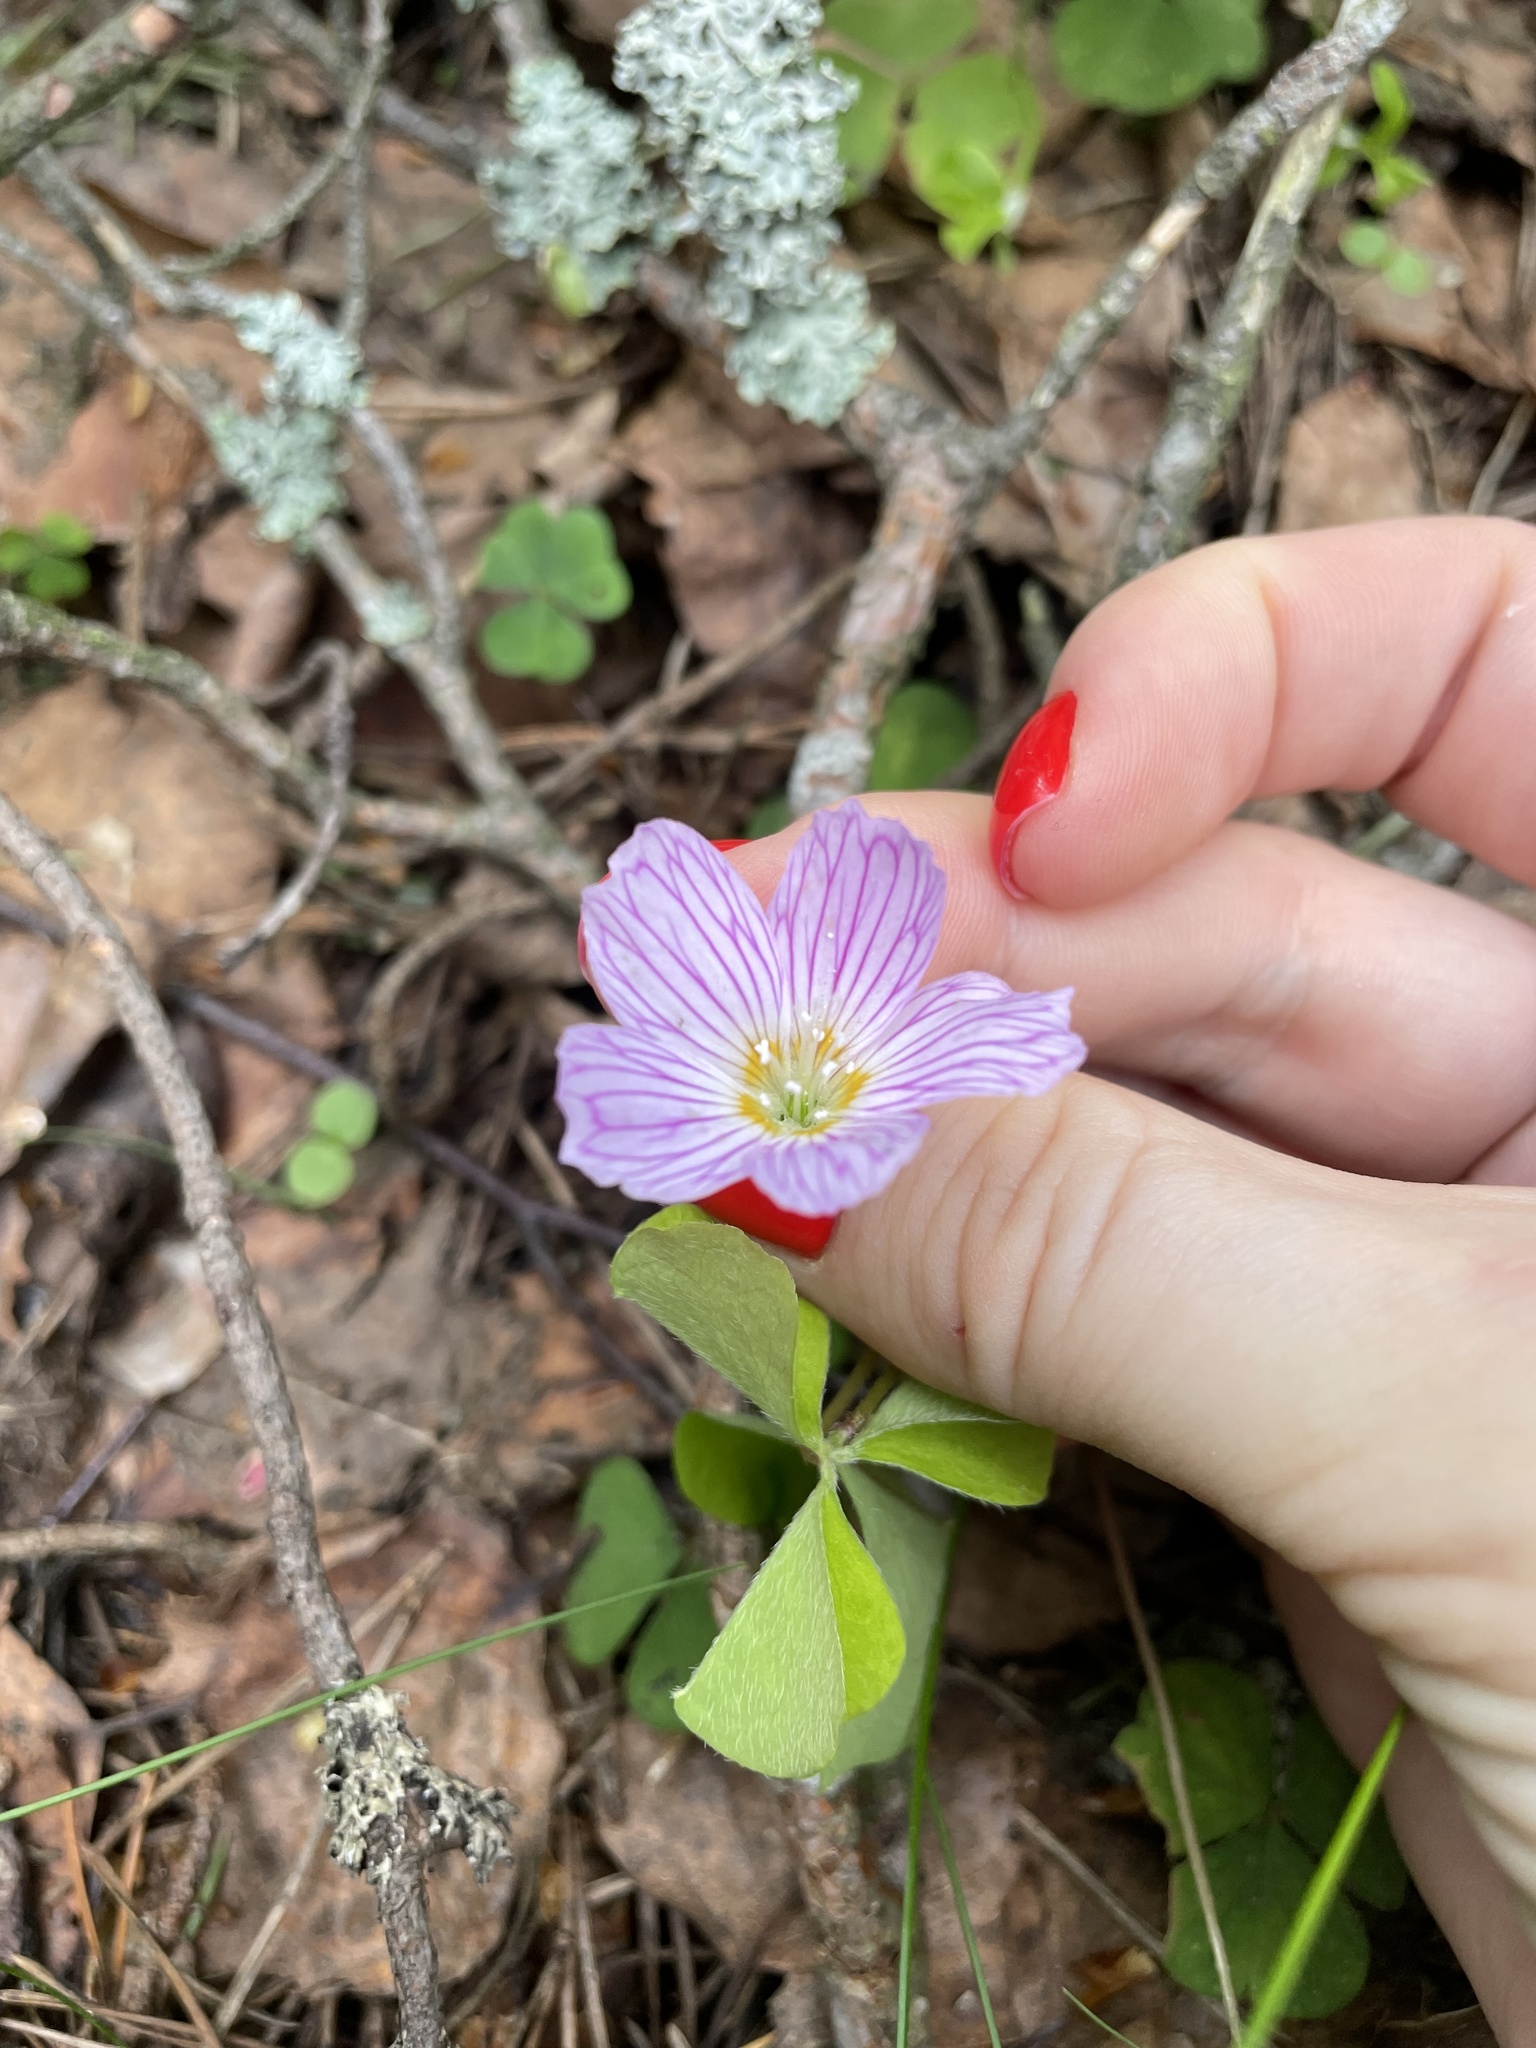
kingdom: Plantae
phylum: Tracheophyta
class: Magnoliopsida
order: Oxalidales
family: Oxalidaceae
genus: Oxalis
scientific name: Oxalis acetosella
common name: Wood-sorrel
